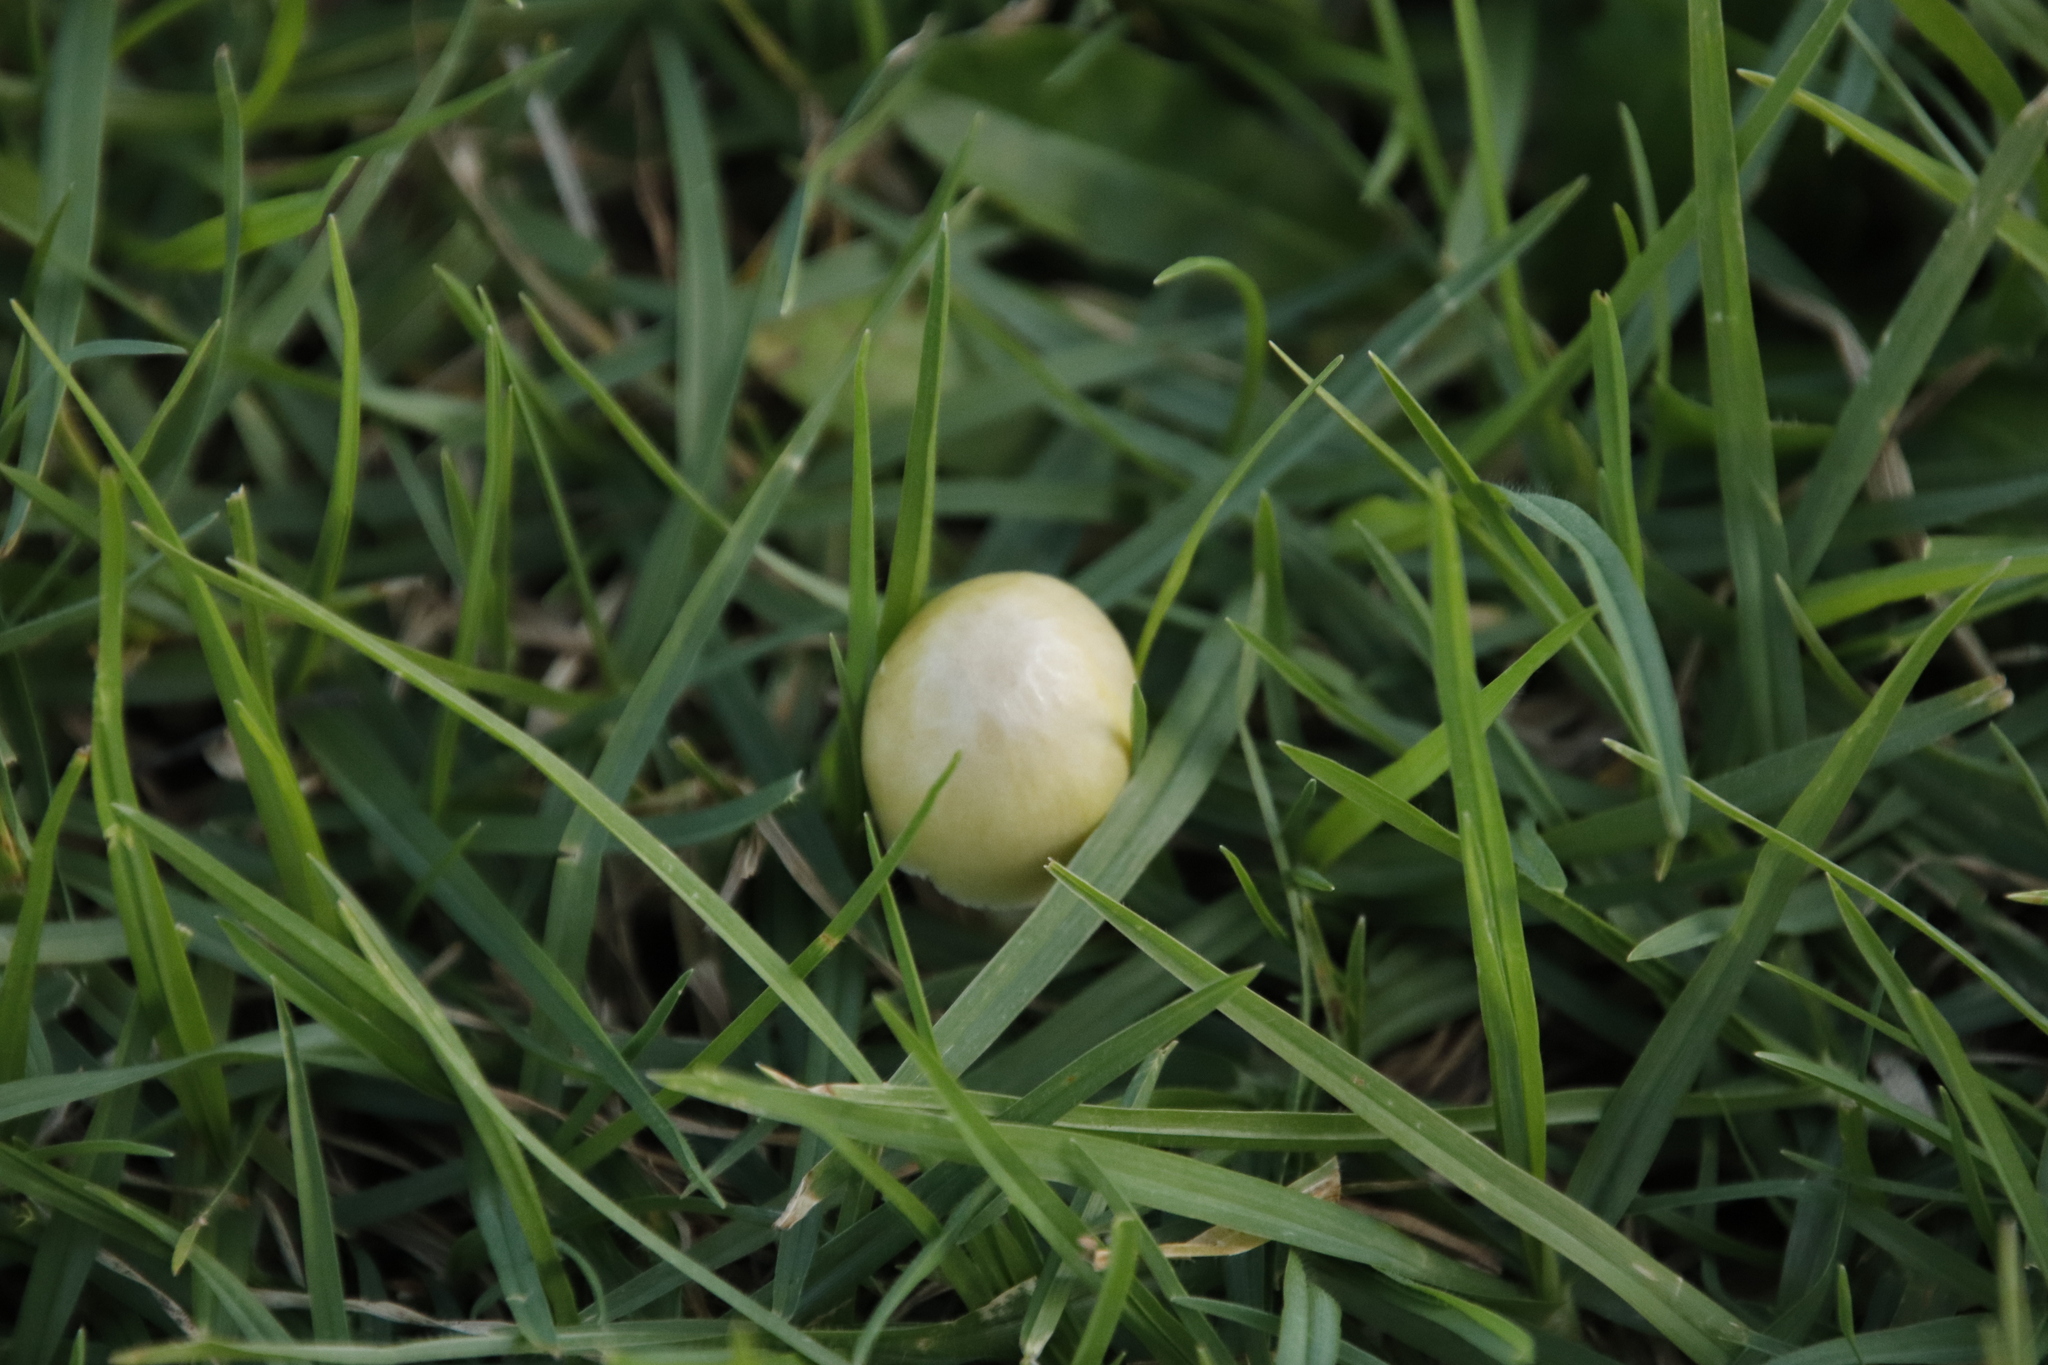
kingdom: Fungi
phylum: Basidiomycota
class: Agaricomycetes
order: Agaricales
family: Bolbitiaceae
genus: Bolbitius
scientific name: Bolbitius titubans
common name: Yellow fieldcap
